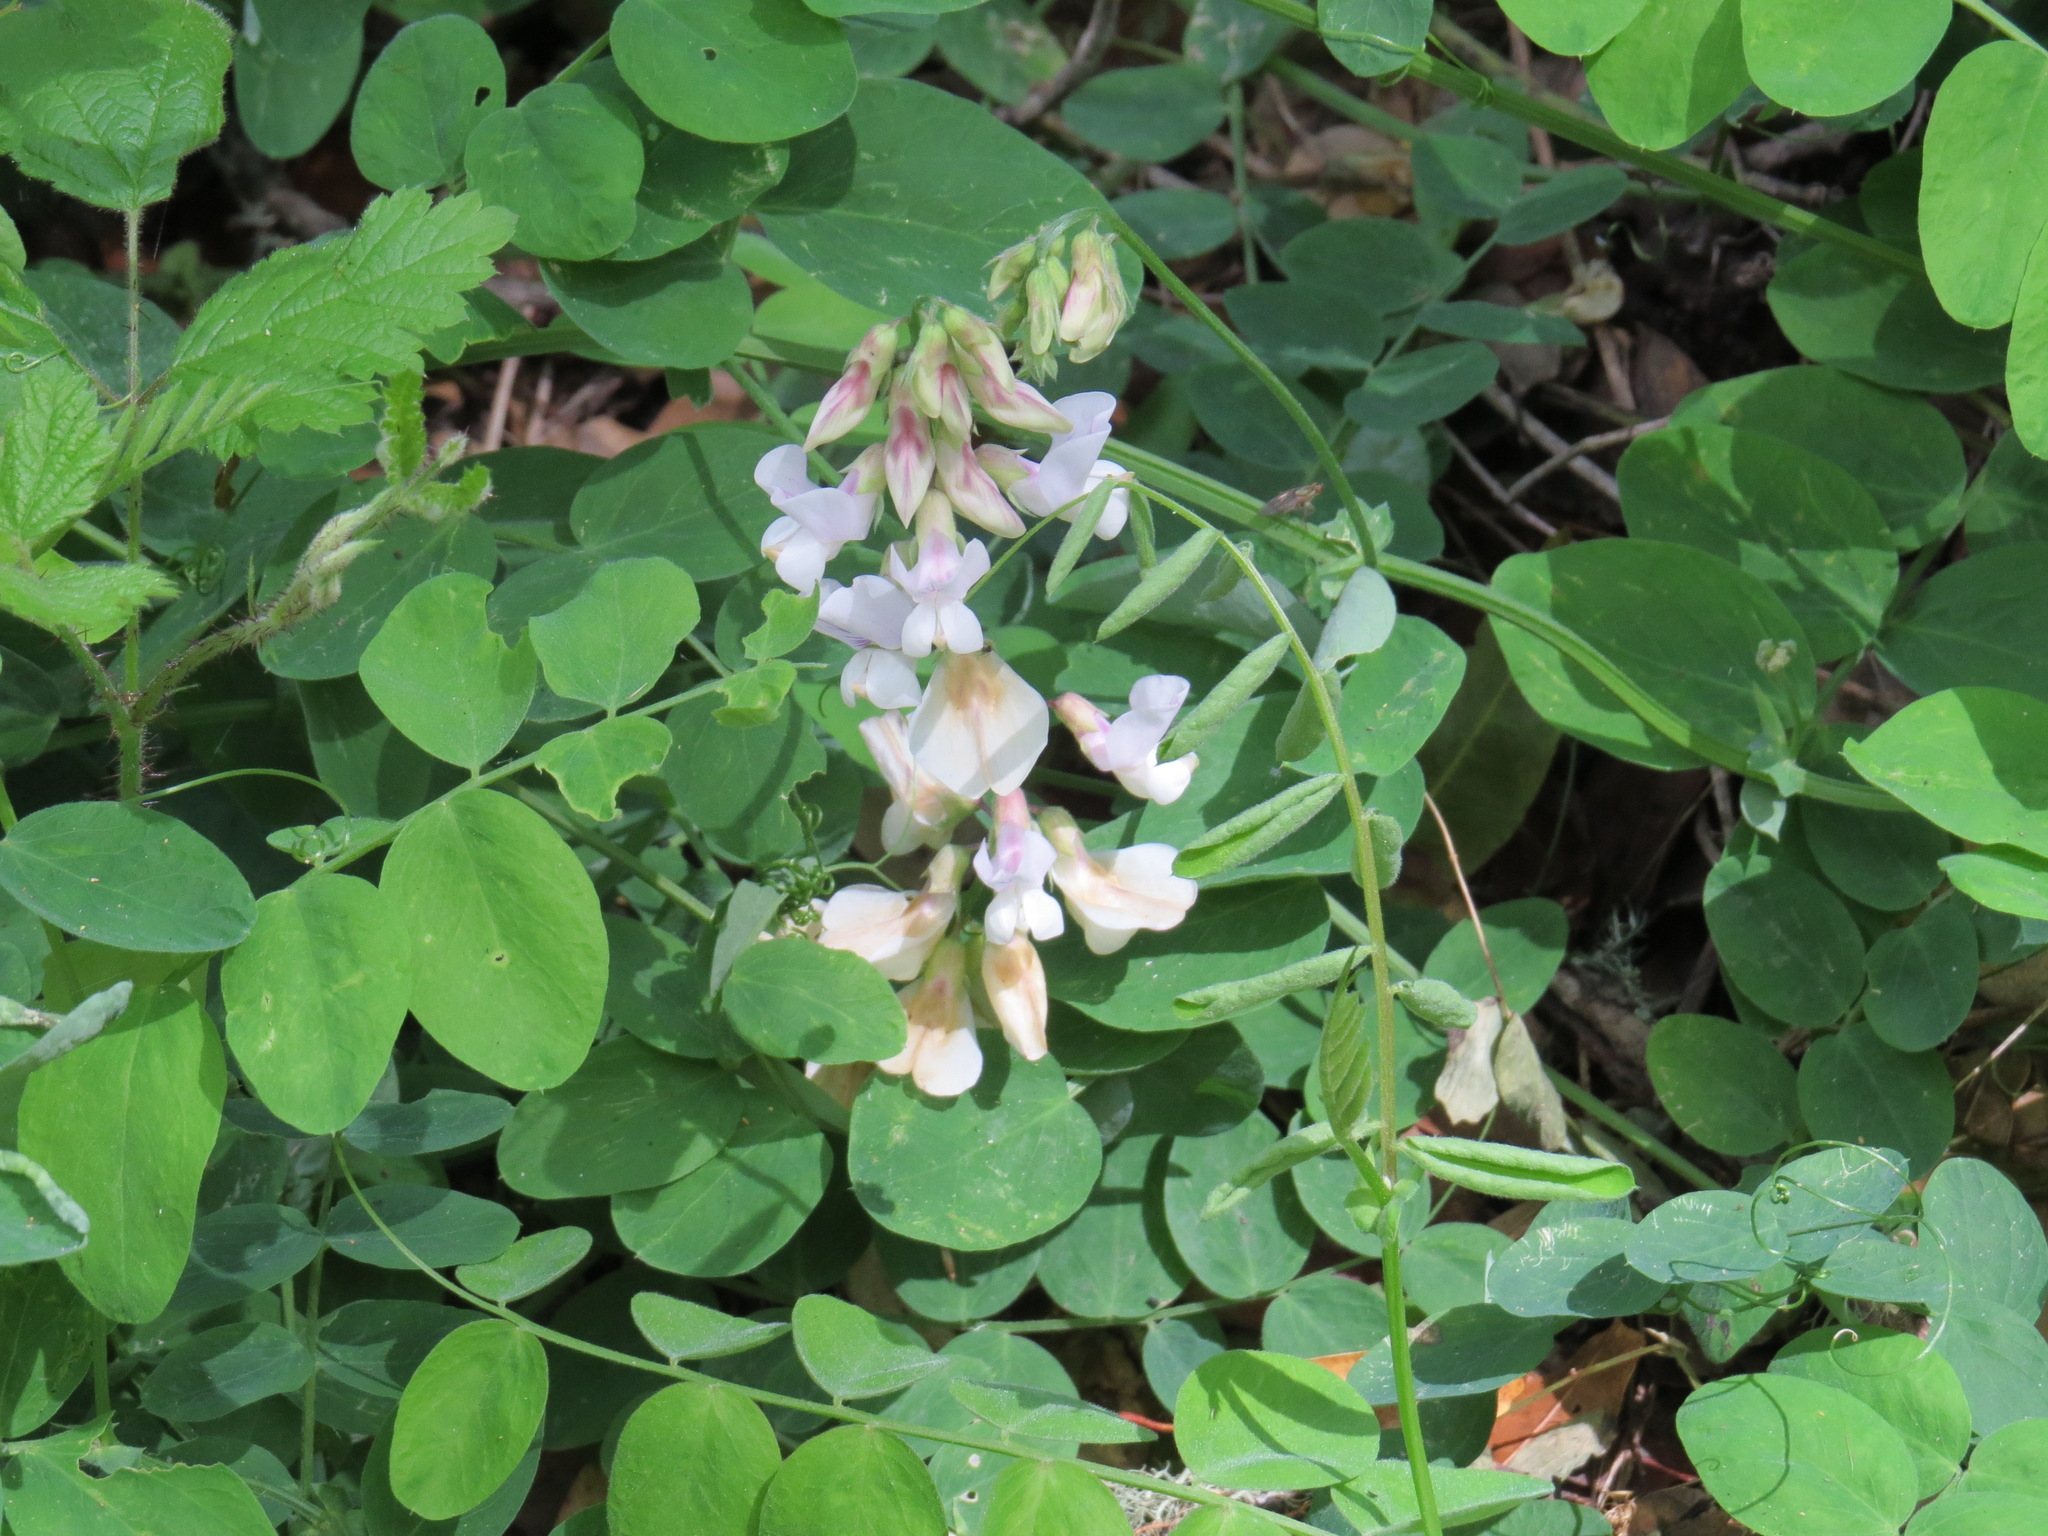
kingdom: Plantae
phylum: Tracheophyta
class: Magnoliopsida
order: Fabales
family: Fabaceae
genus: Lathyrus
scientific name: Lathyrus vestitus
